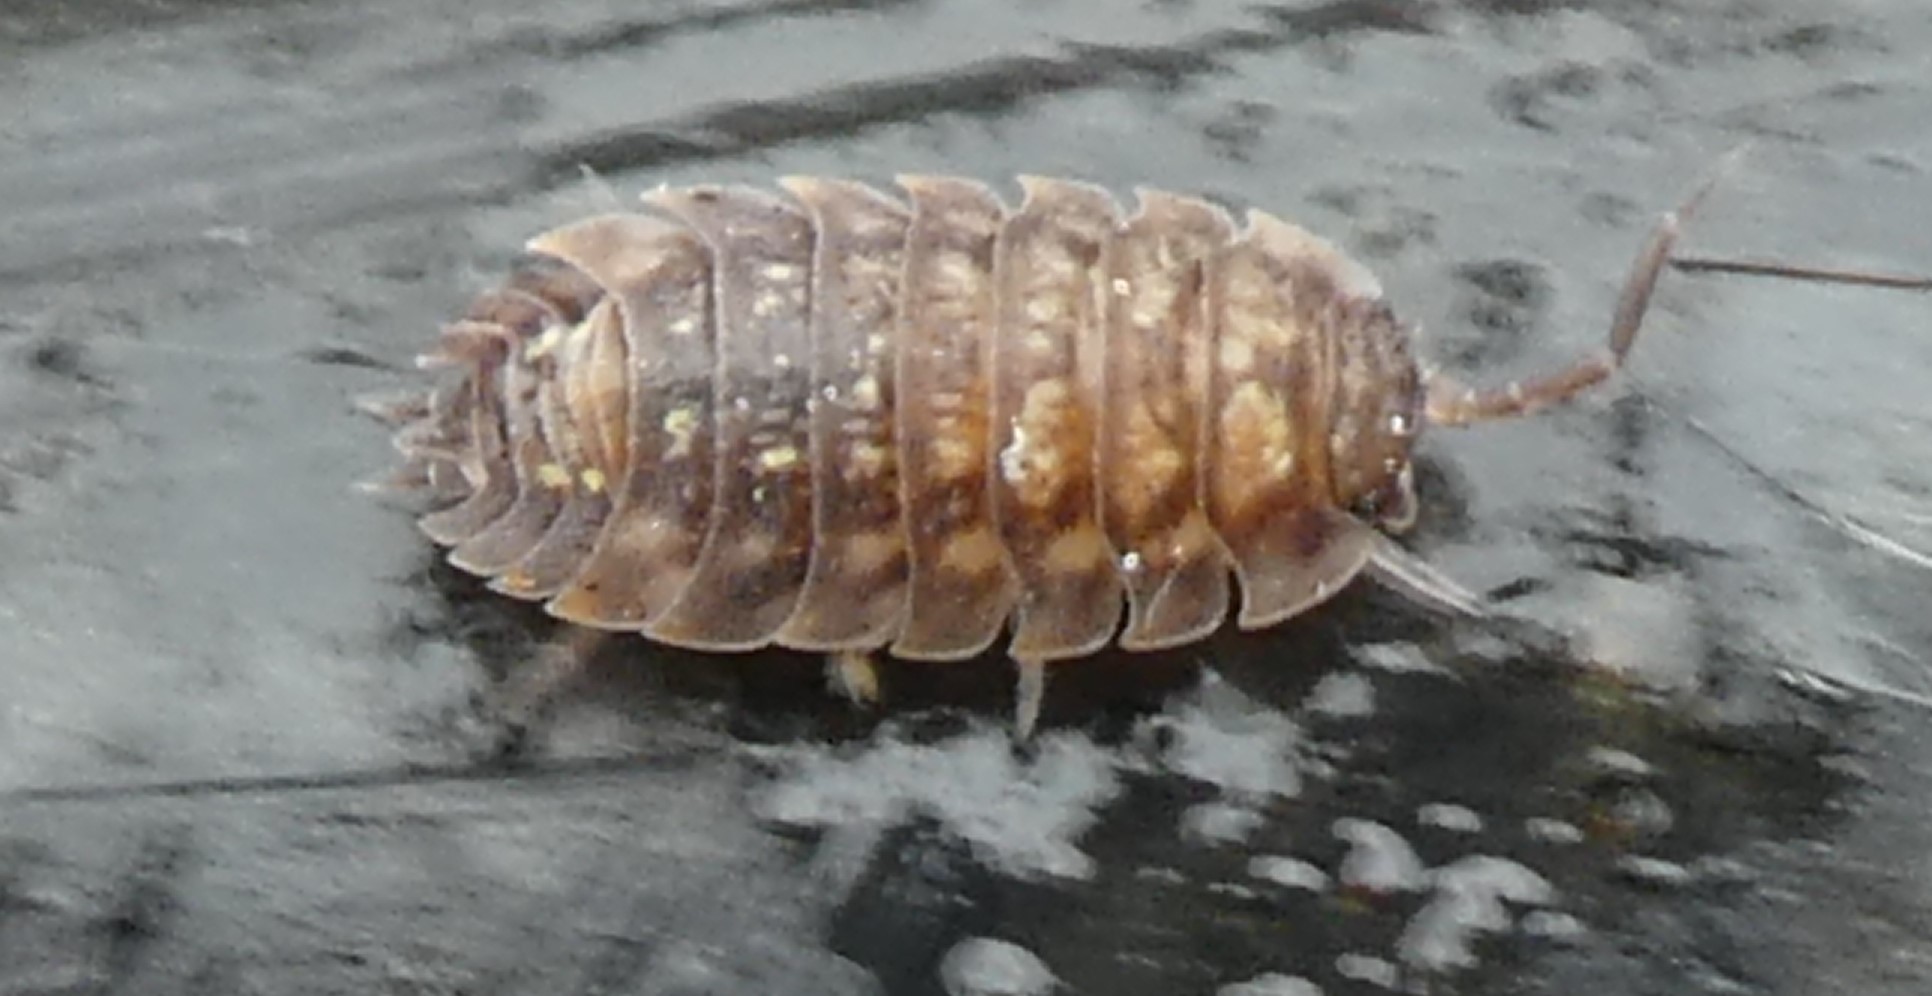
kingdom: Animalia
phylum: Arthropoda
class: Malacostraca
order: Isopoda
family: Oniscidae
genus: Oniscus
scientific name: Oniscus asellus
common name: Common shiny woodlouse
